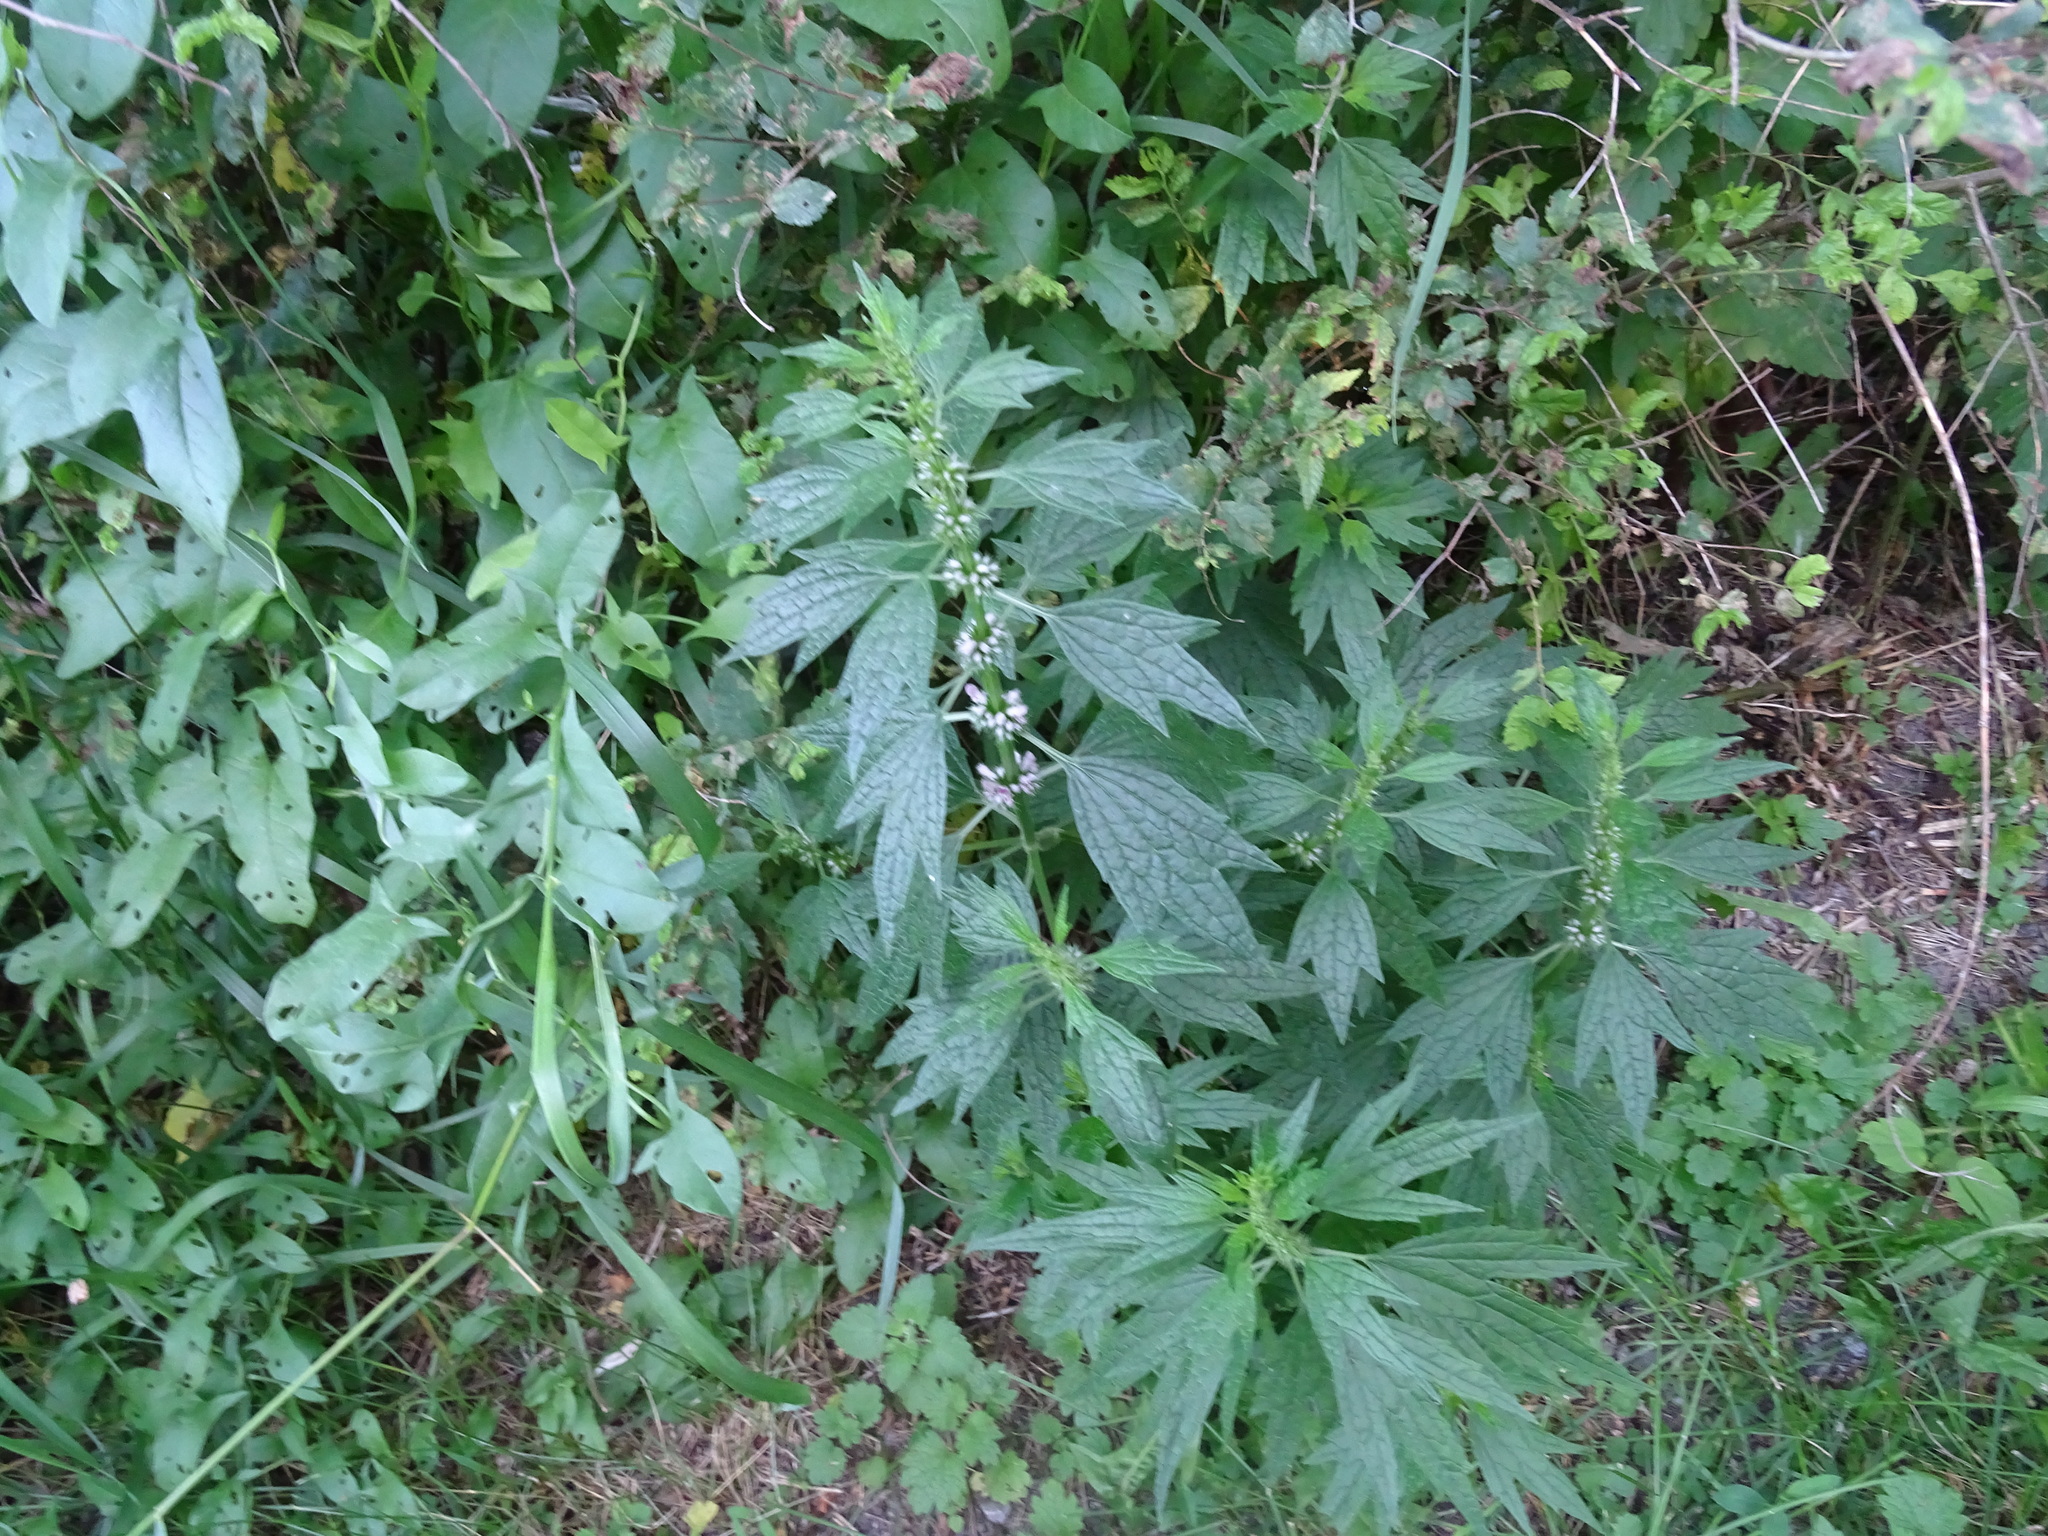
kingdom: Plantae
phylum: Tracheophyta
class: Magnoliopsida
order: Lamiales
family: Lamiaceae
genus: Leonurus
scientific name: Leonurus cardiaca
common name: Motherwort
